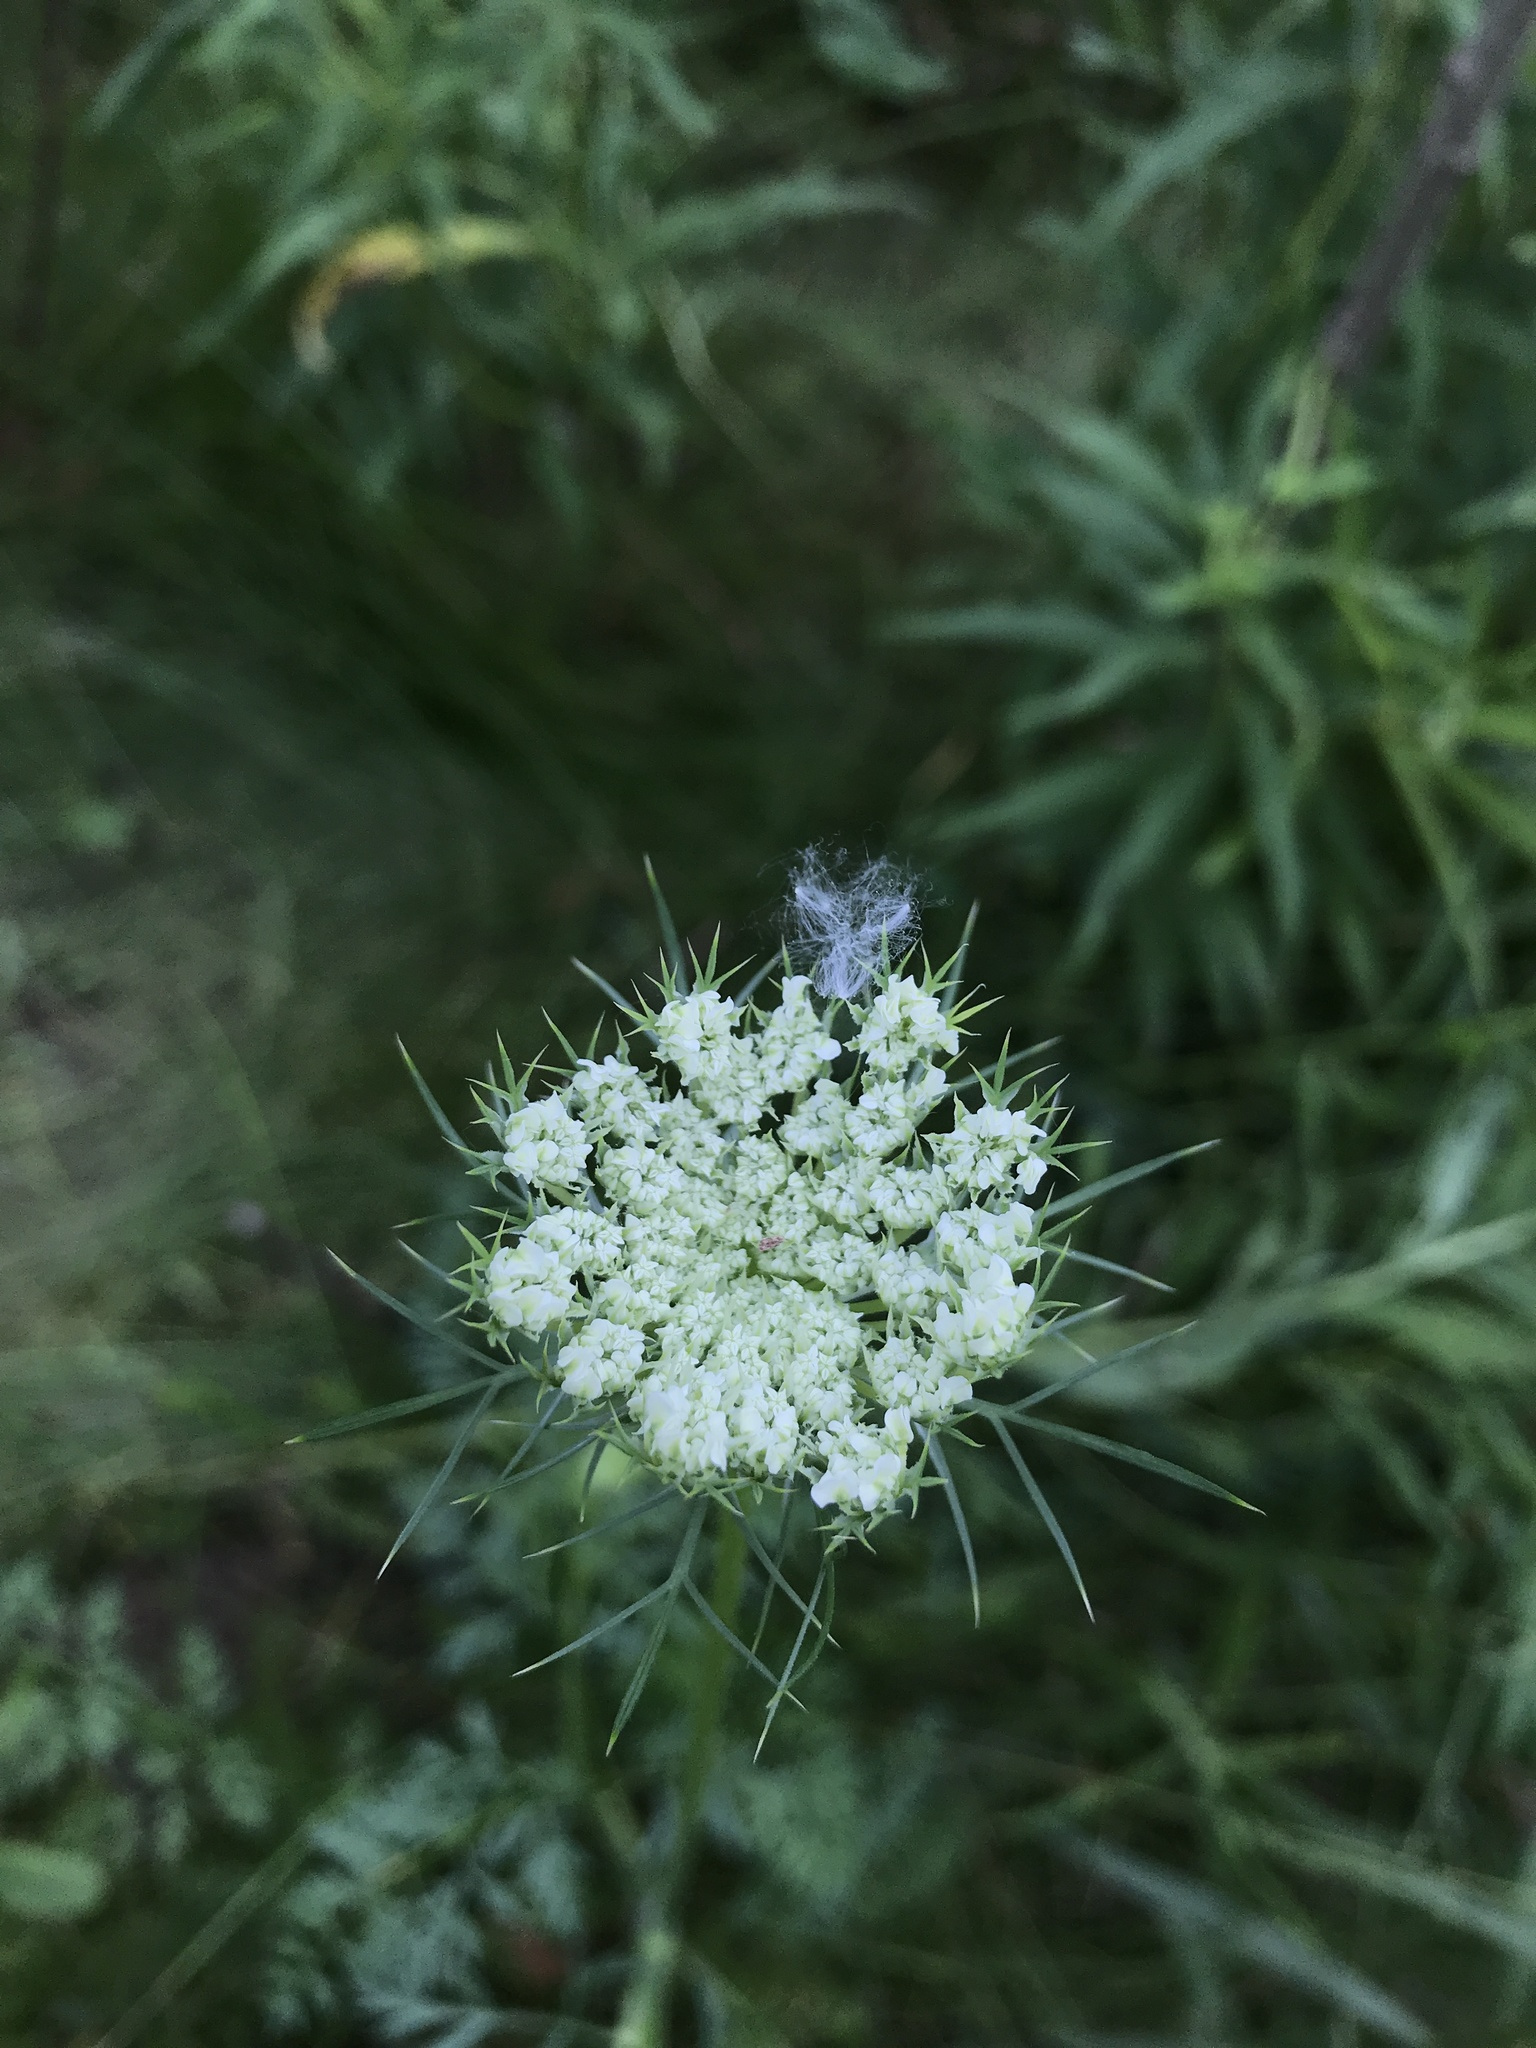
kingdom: Plantae
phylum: Tracheophyta
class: Magnoliopsida
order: Apiales
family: Apiaceae
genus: Daucus
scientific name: Daucus carota
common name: Wild carrot
